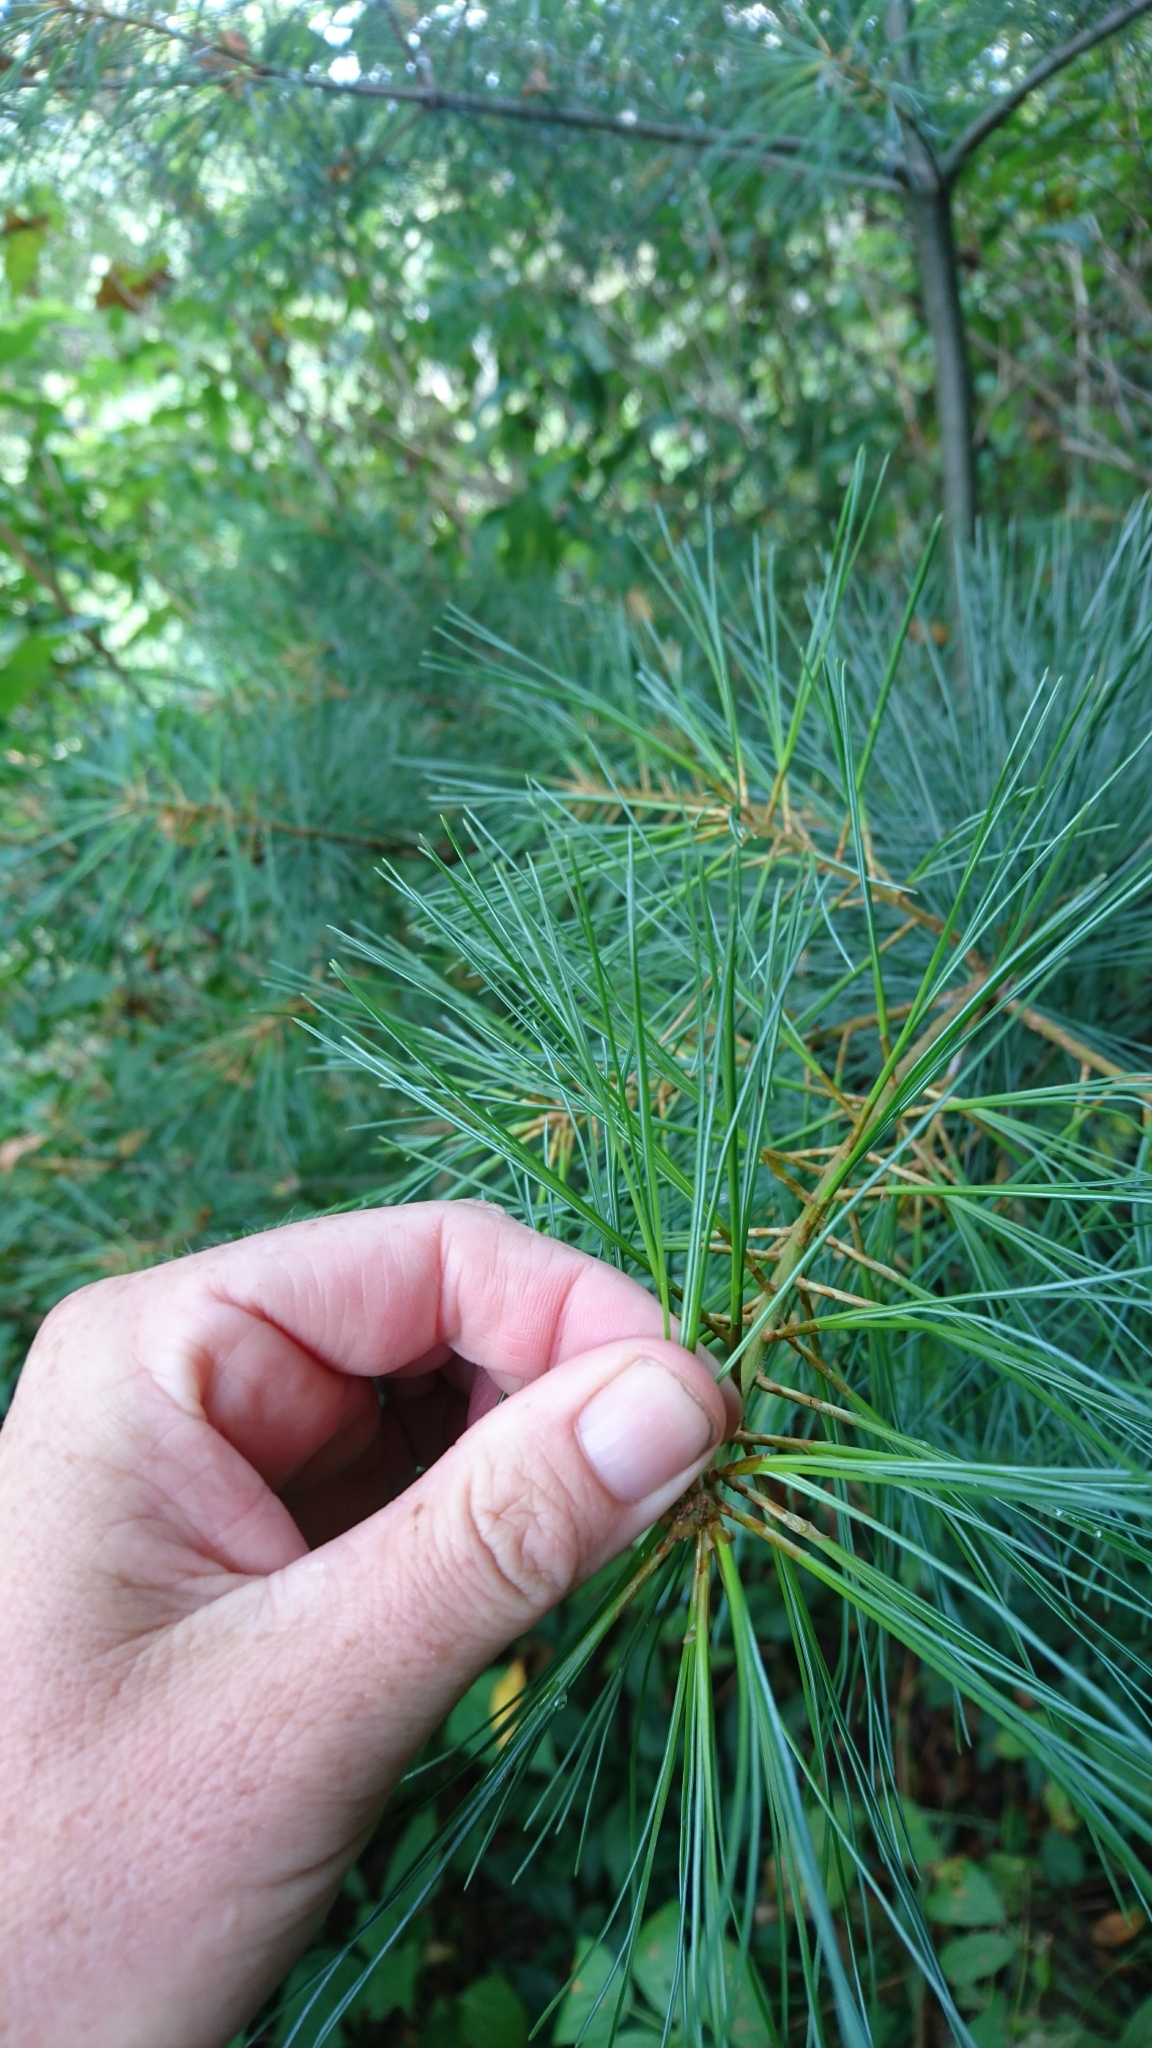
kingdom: Plantae
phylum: Tracheophyta
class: Pinopsida
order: Pinales
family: Pinaceae
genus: Pinus
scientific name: Pinus strobus
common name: Weymouth pine
